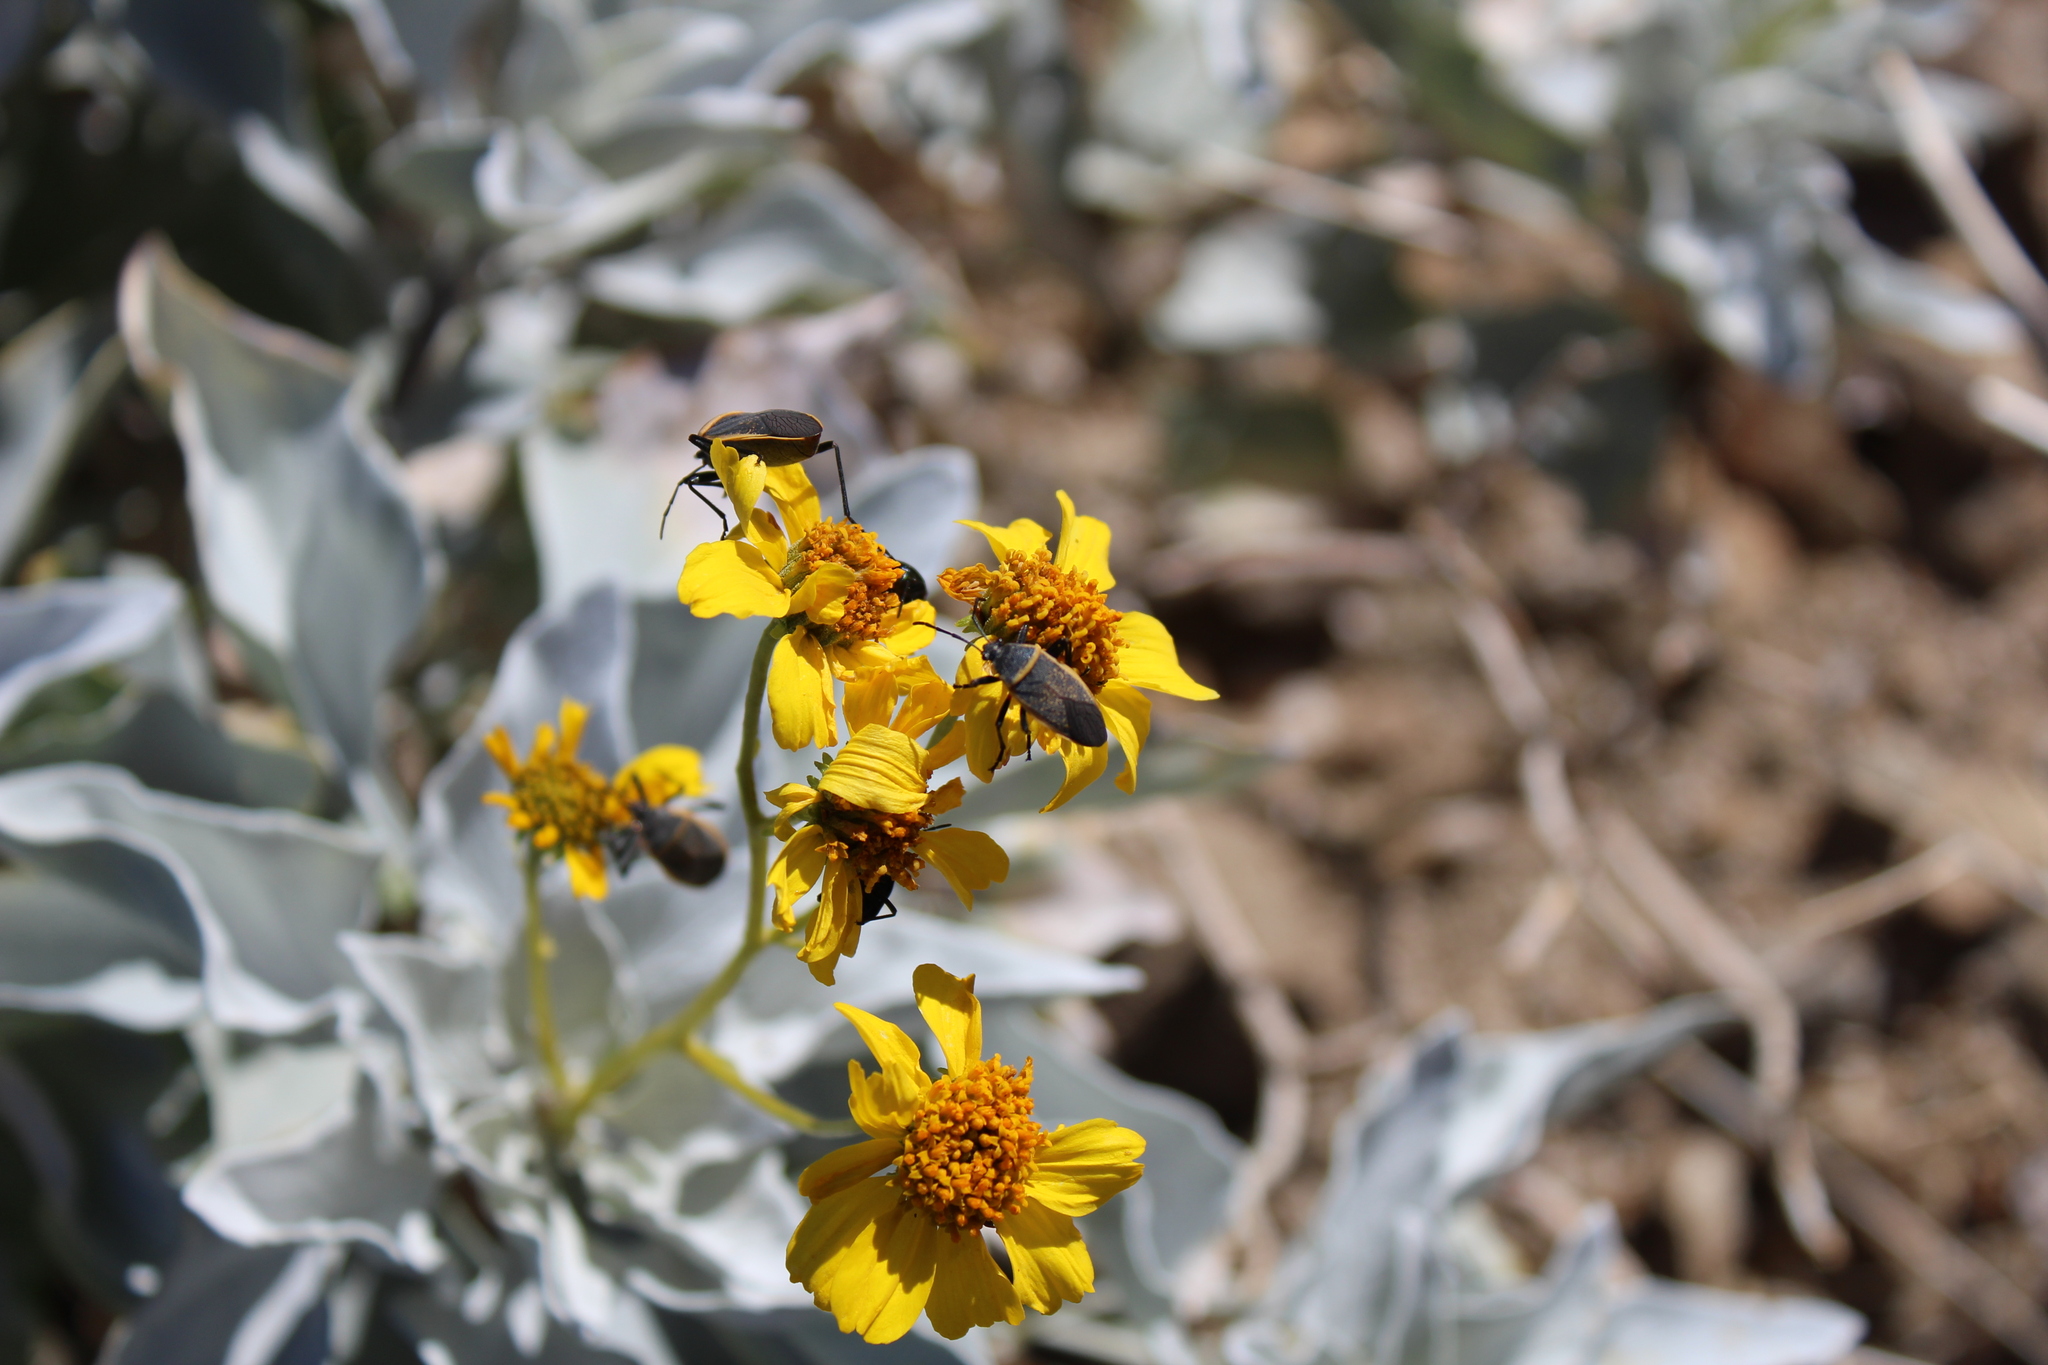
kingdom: Animalia
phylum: Arthropoda
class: Insecta
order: Hemiptera
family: Largidae
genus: Largus
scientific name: Largus californicus
